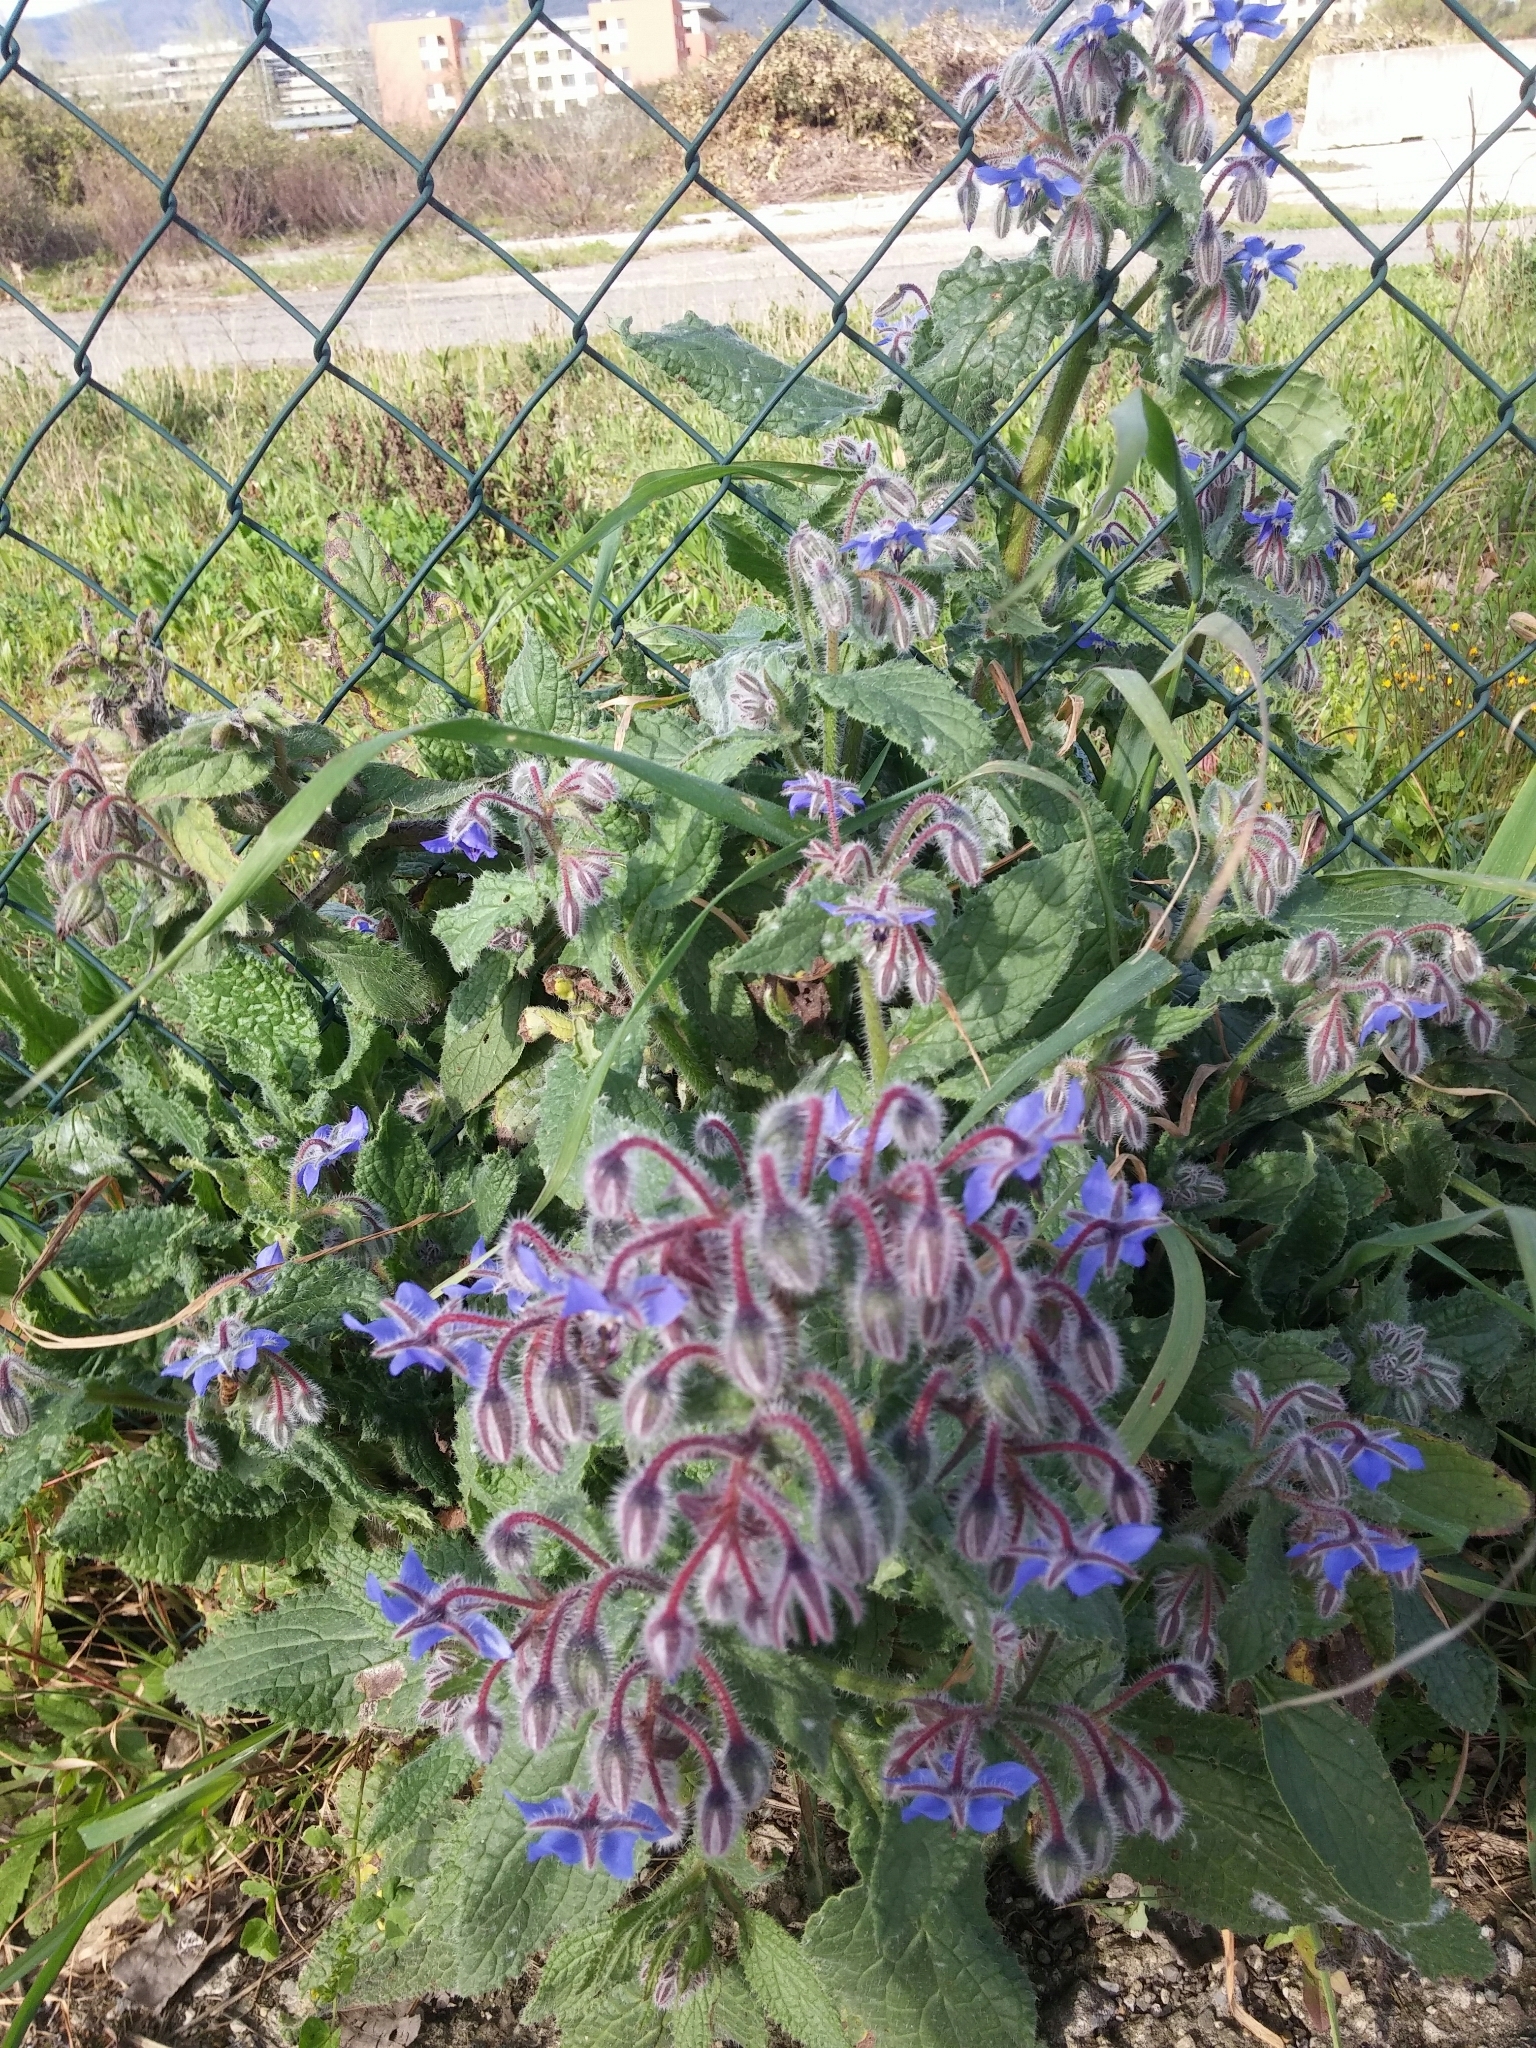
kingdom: Plantae
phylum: Tracheophyta
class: Magnoliopsida
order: Boraginales
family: Boraginaceae
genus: Borago
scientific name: Borago officinalis
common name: Borage
